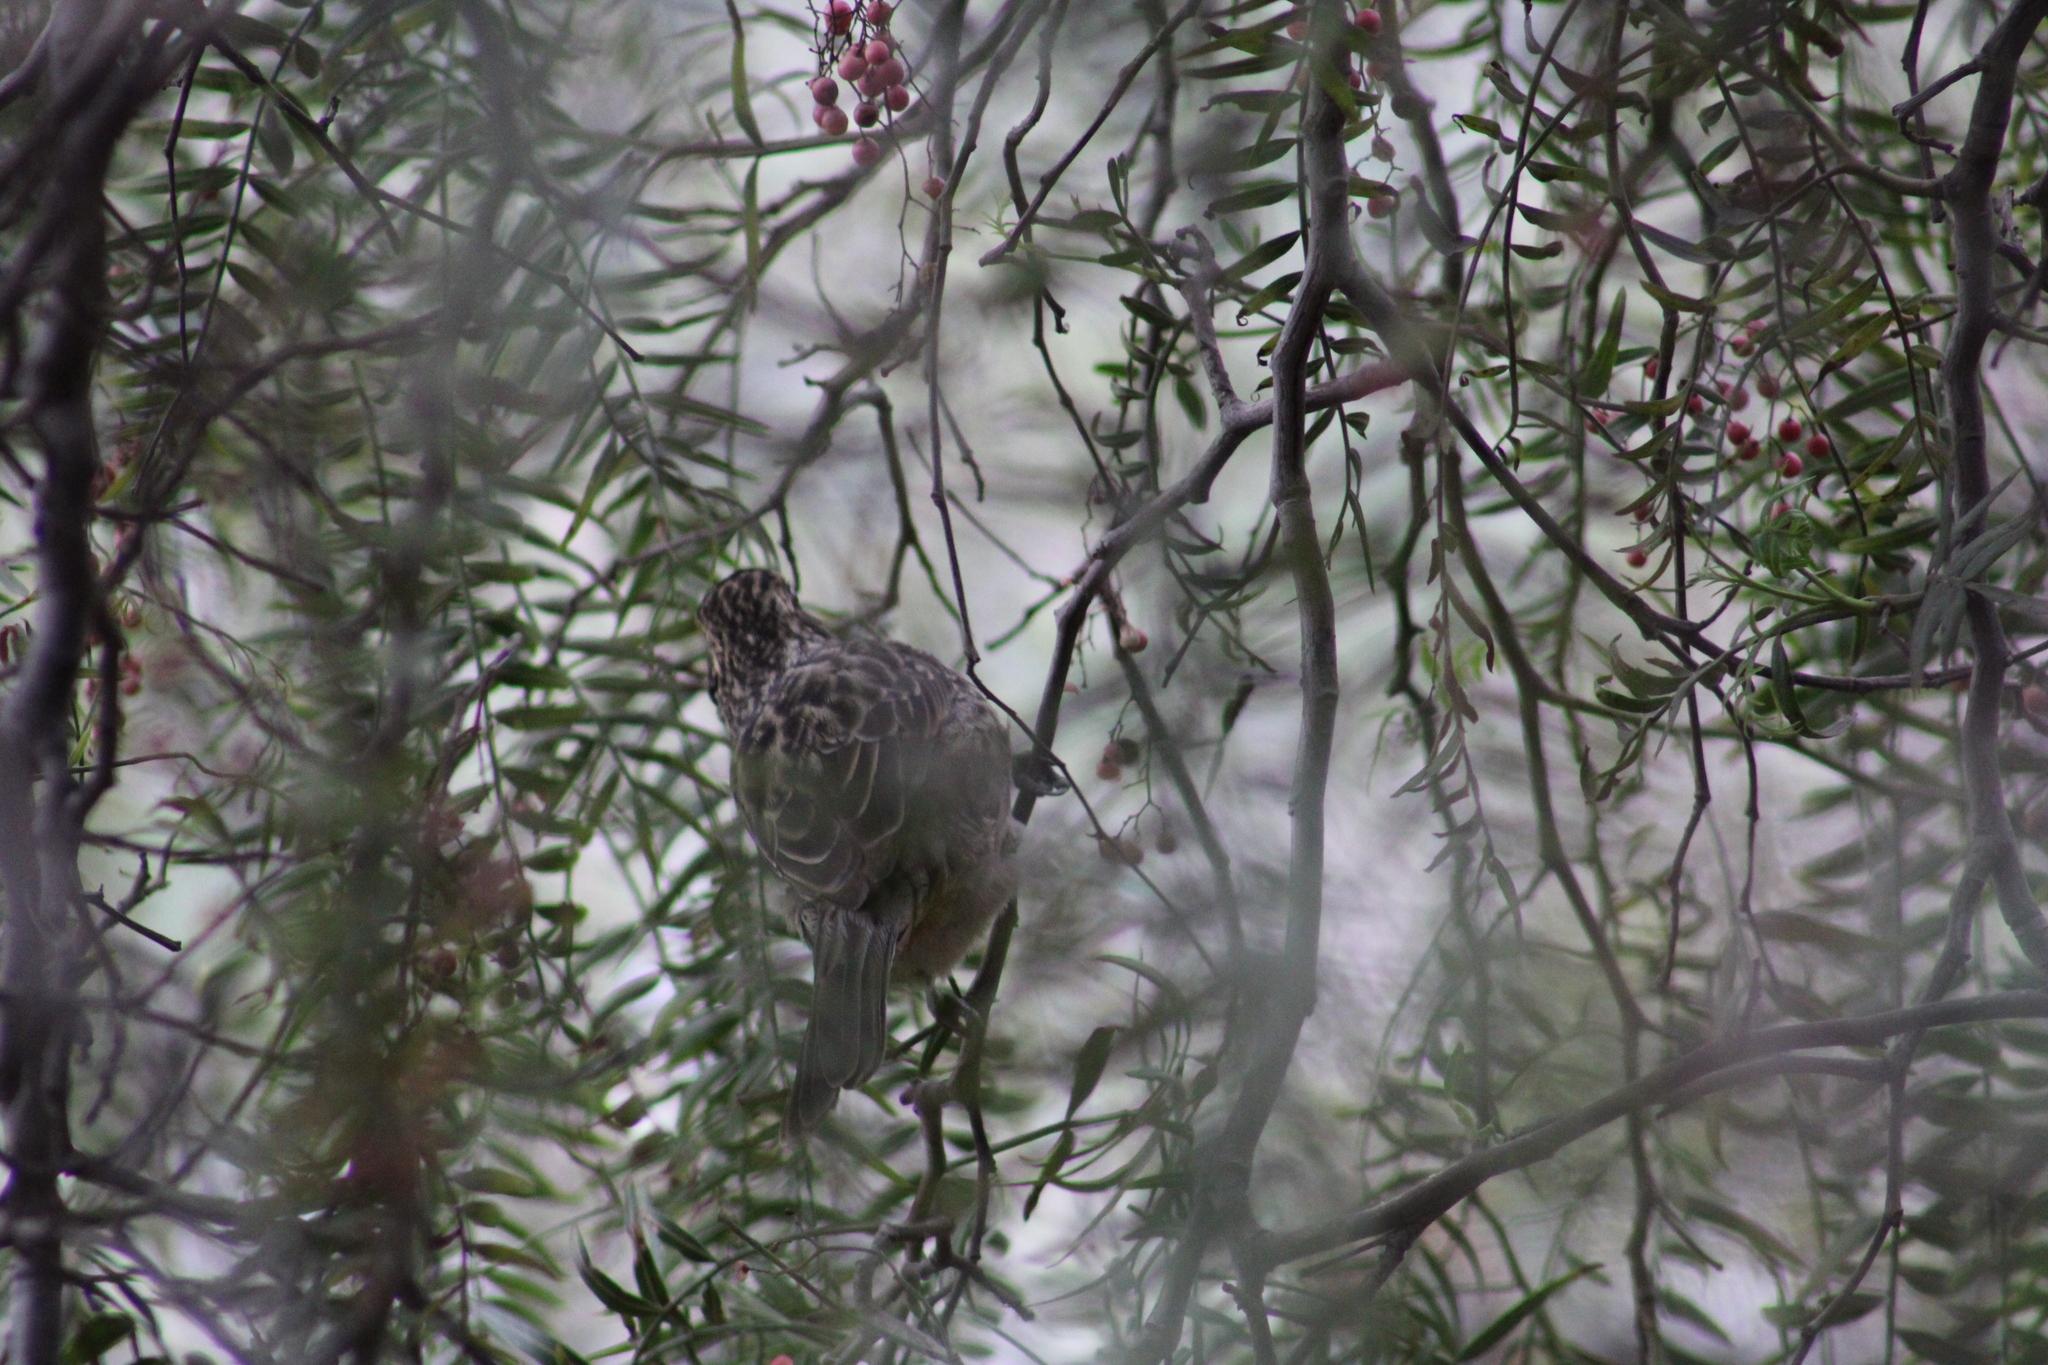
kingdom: Animalia
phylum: Chordata
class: Aves
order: Passeriformes
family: Cotingidae
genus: Phytotoma
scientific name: Phytotoma rara
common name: Rufous-tailed plantcutter
